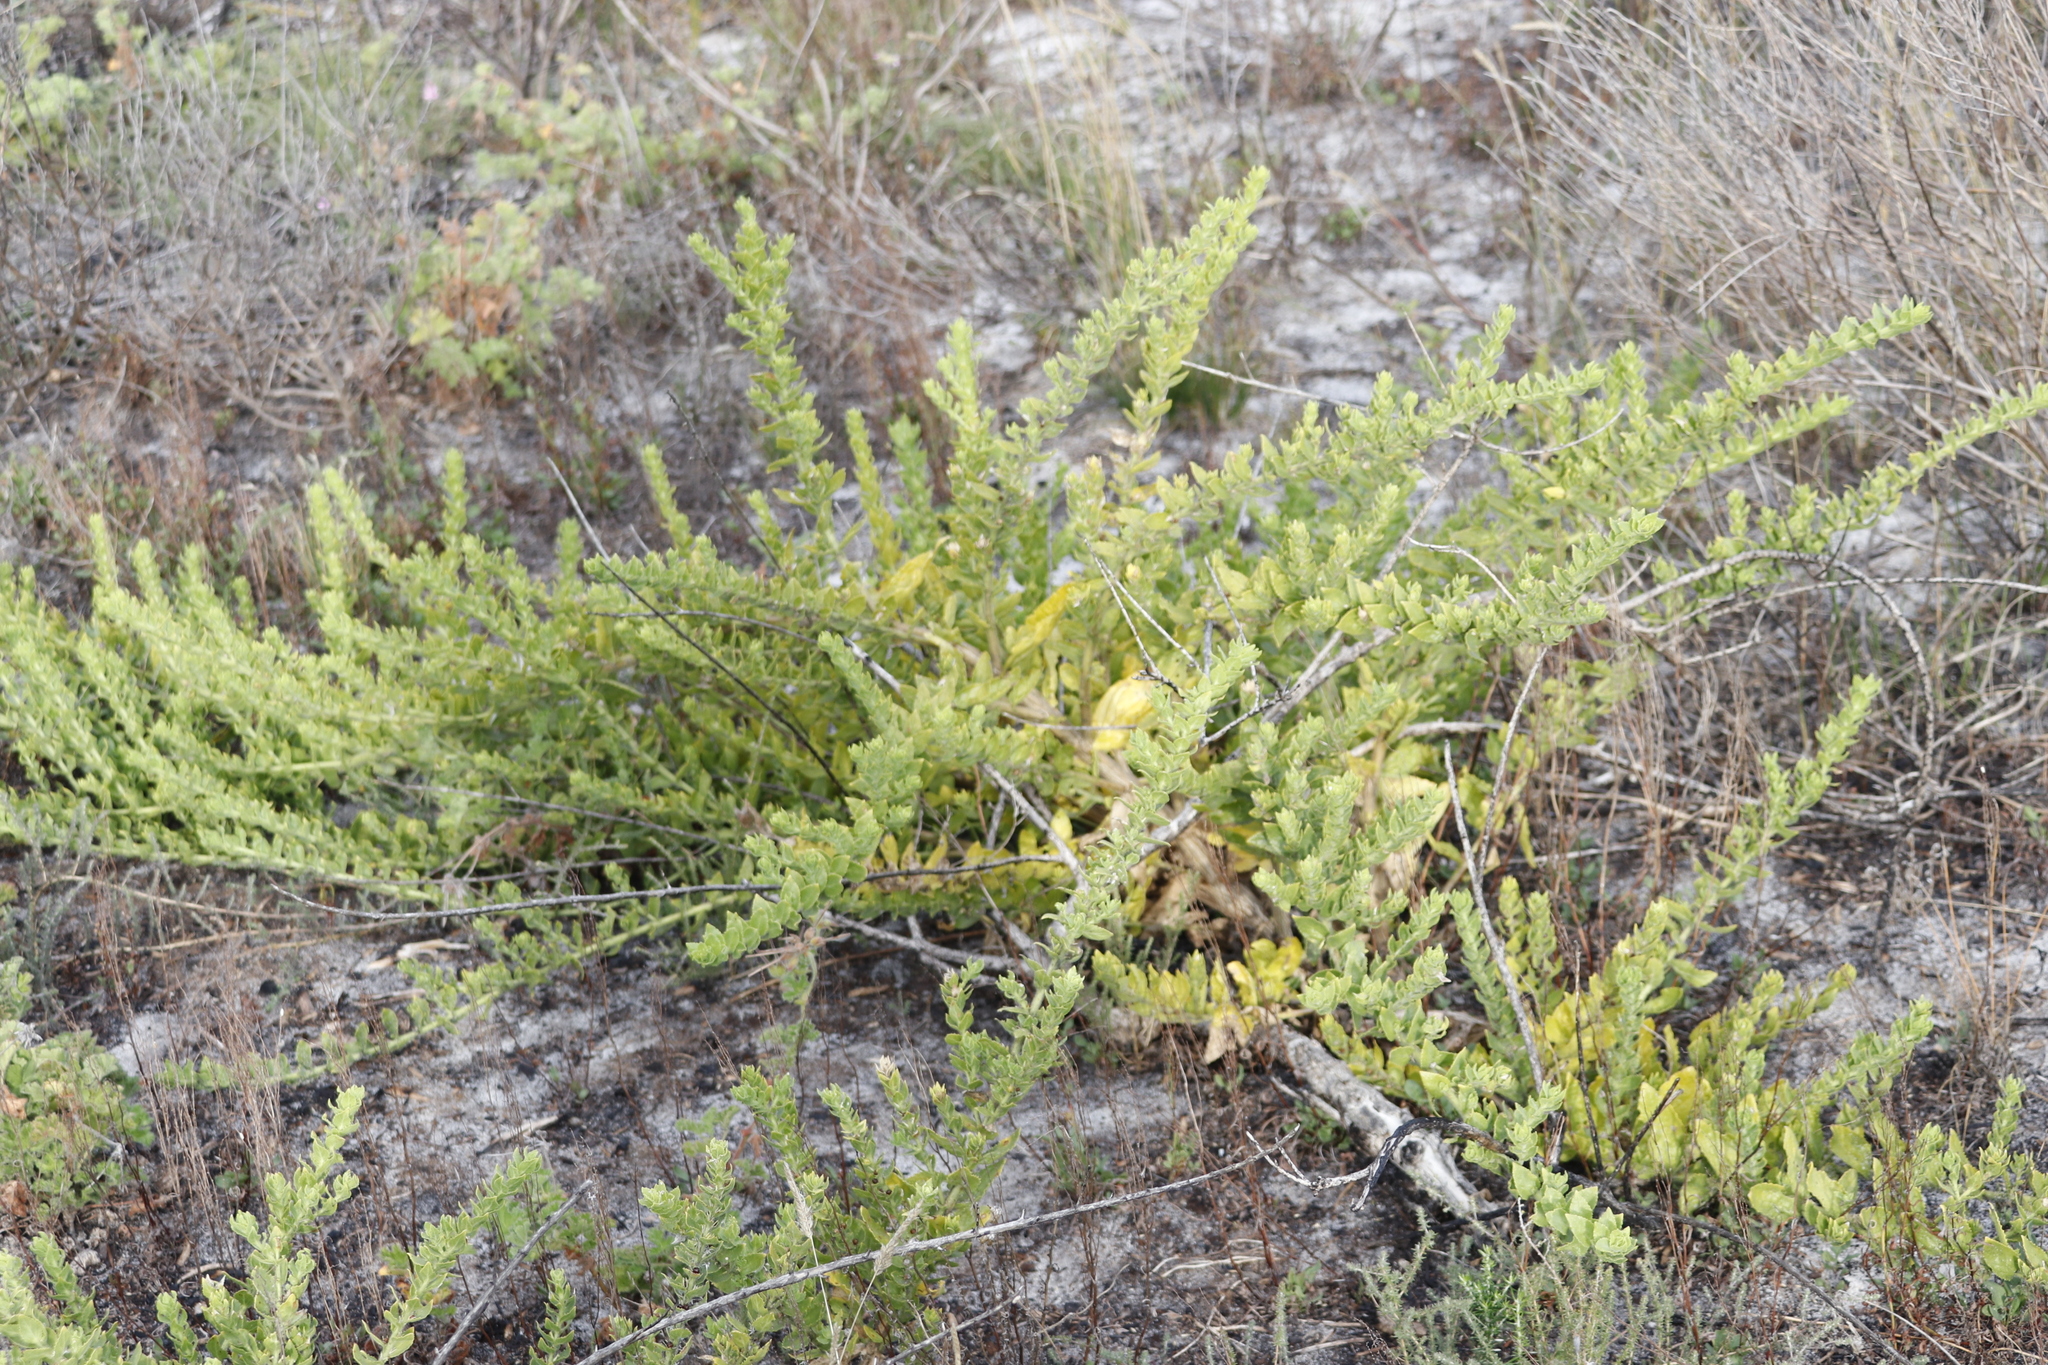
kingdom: Plantae
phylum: Tracheophyta
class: Magnoliopsida
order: Lamiales
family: Scrophulariaceae
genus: Oftia
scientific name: Oftia africana
